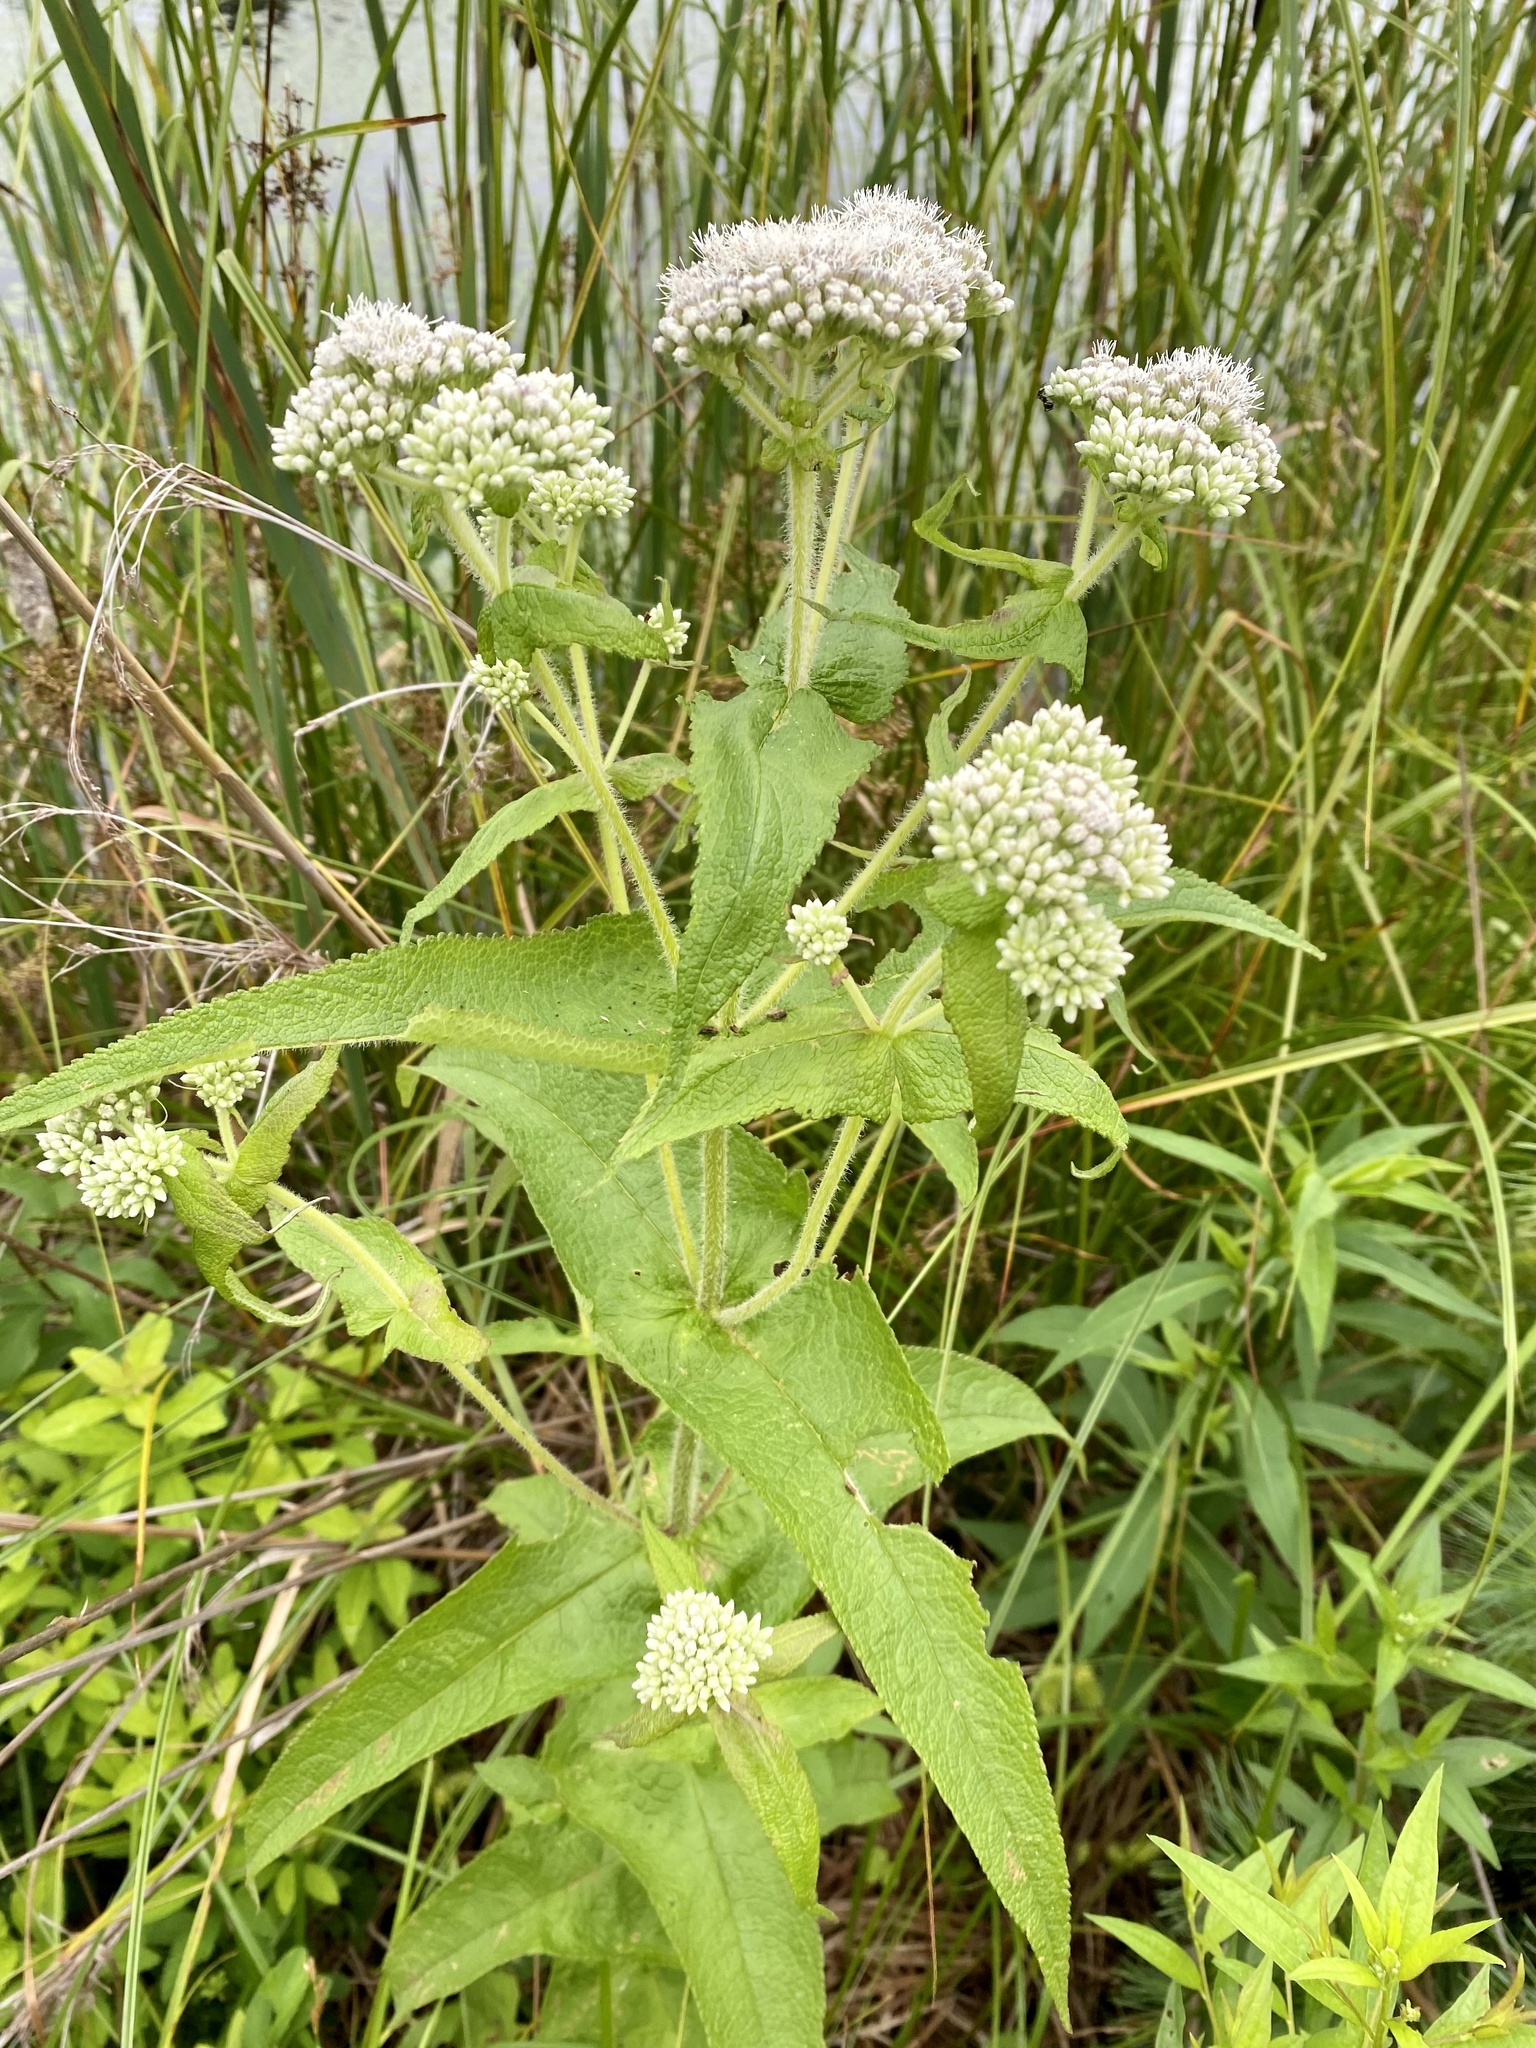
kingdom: Plantae
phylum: Tracheophyta
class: Magnoliopsida
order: Asterales
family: Asteraceae
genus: Eupatorium
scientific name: Eupatorium perfoliatum
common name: Boneset
